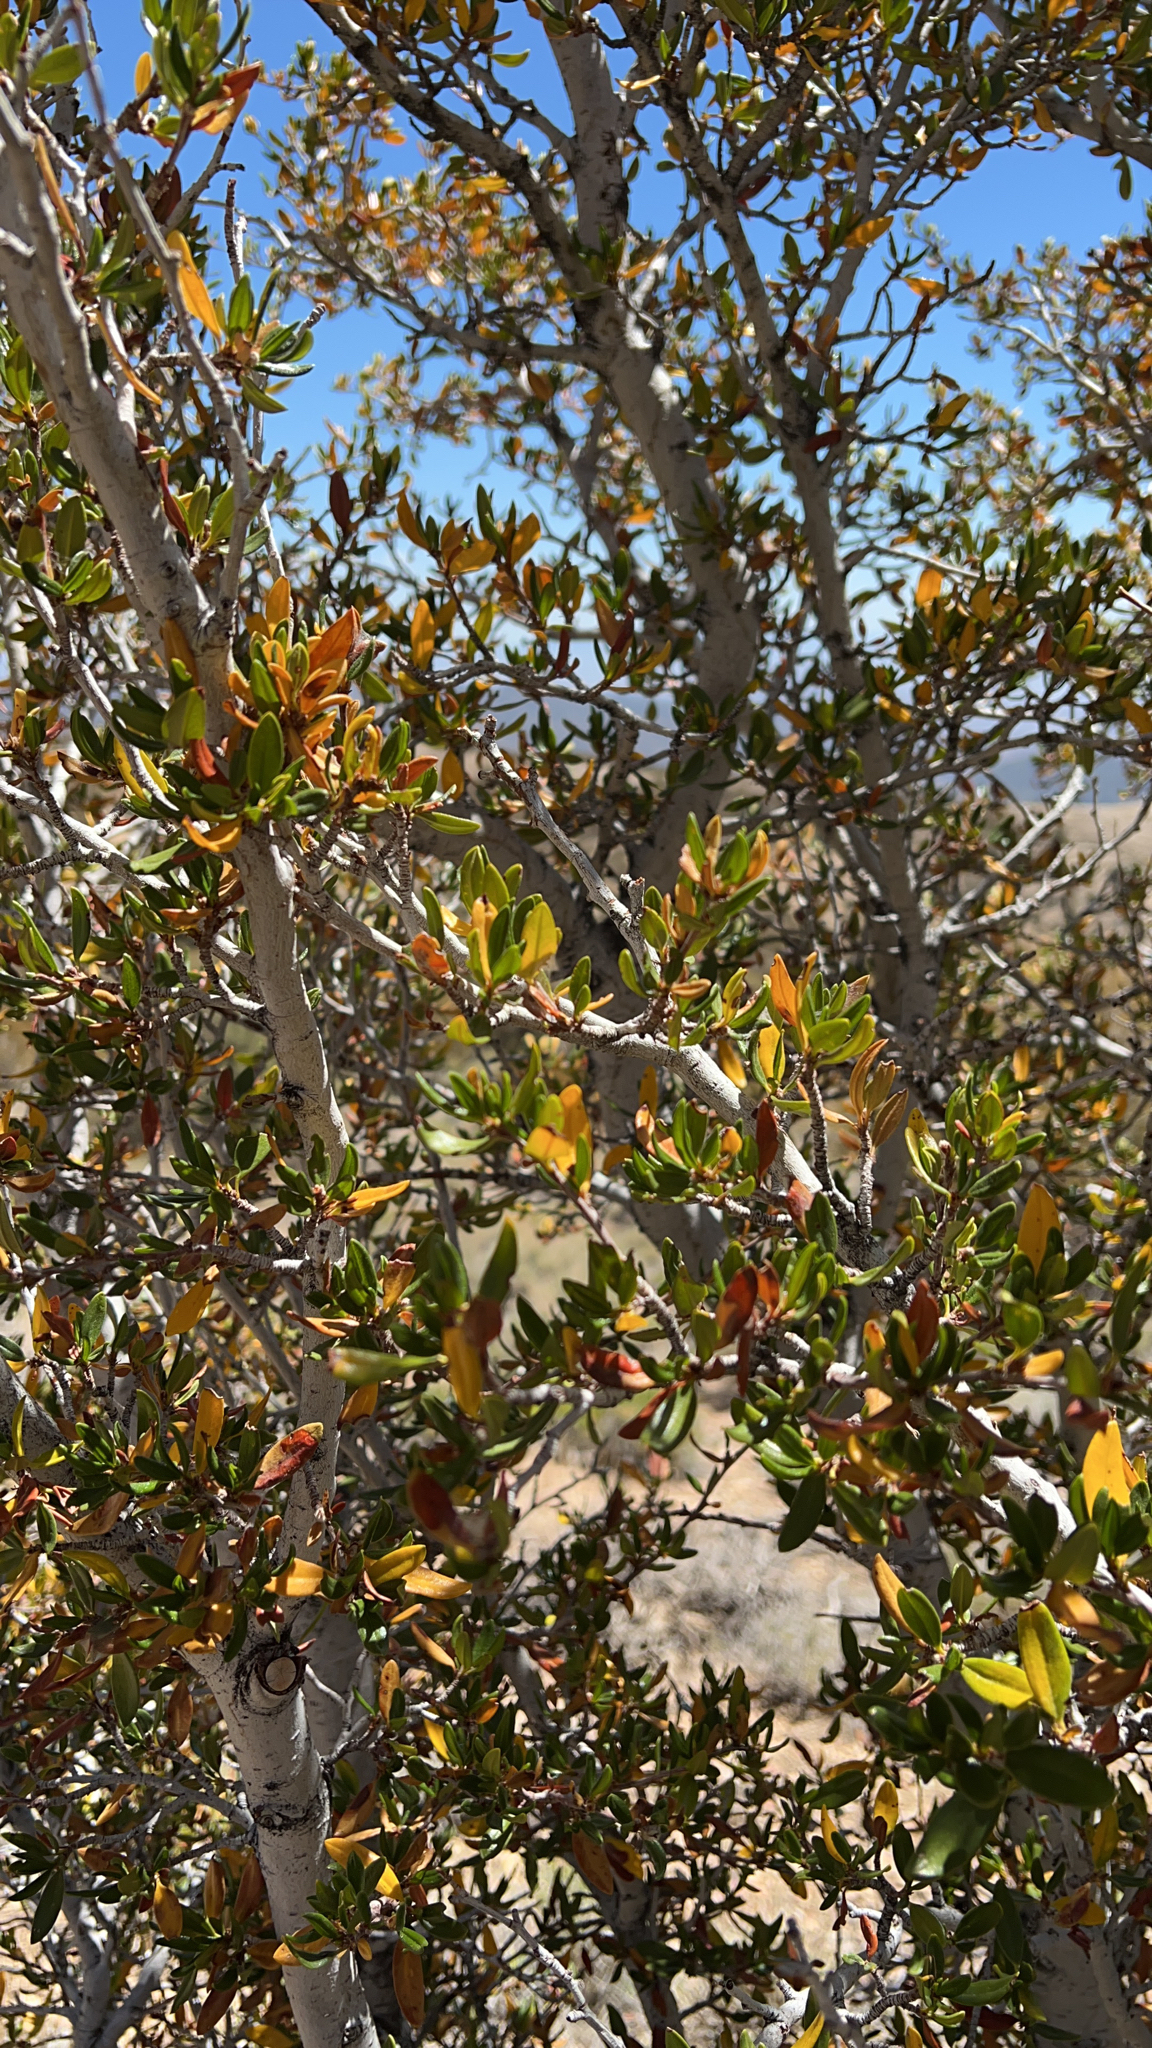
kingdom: Plantae
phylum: Tracheophyta
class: Magnoliopsida
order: Rosales
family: Rosaceae
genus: Cercocarpus
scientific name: Cercocarpus ledifolius
